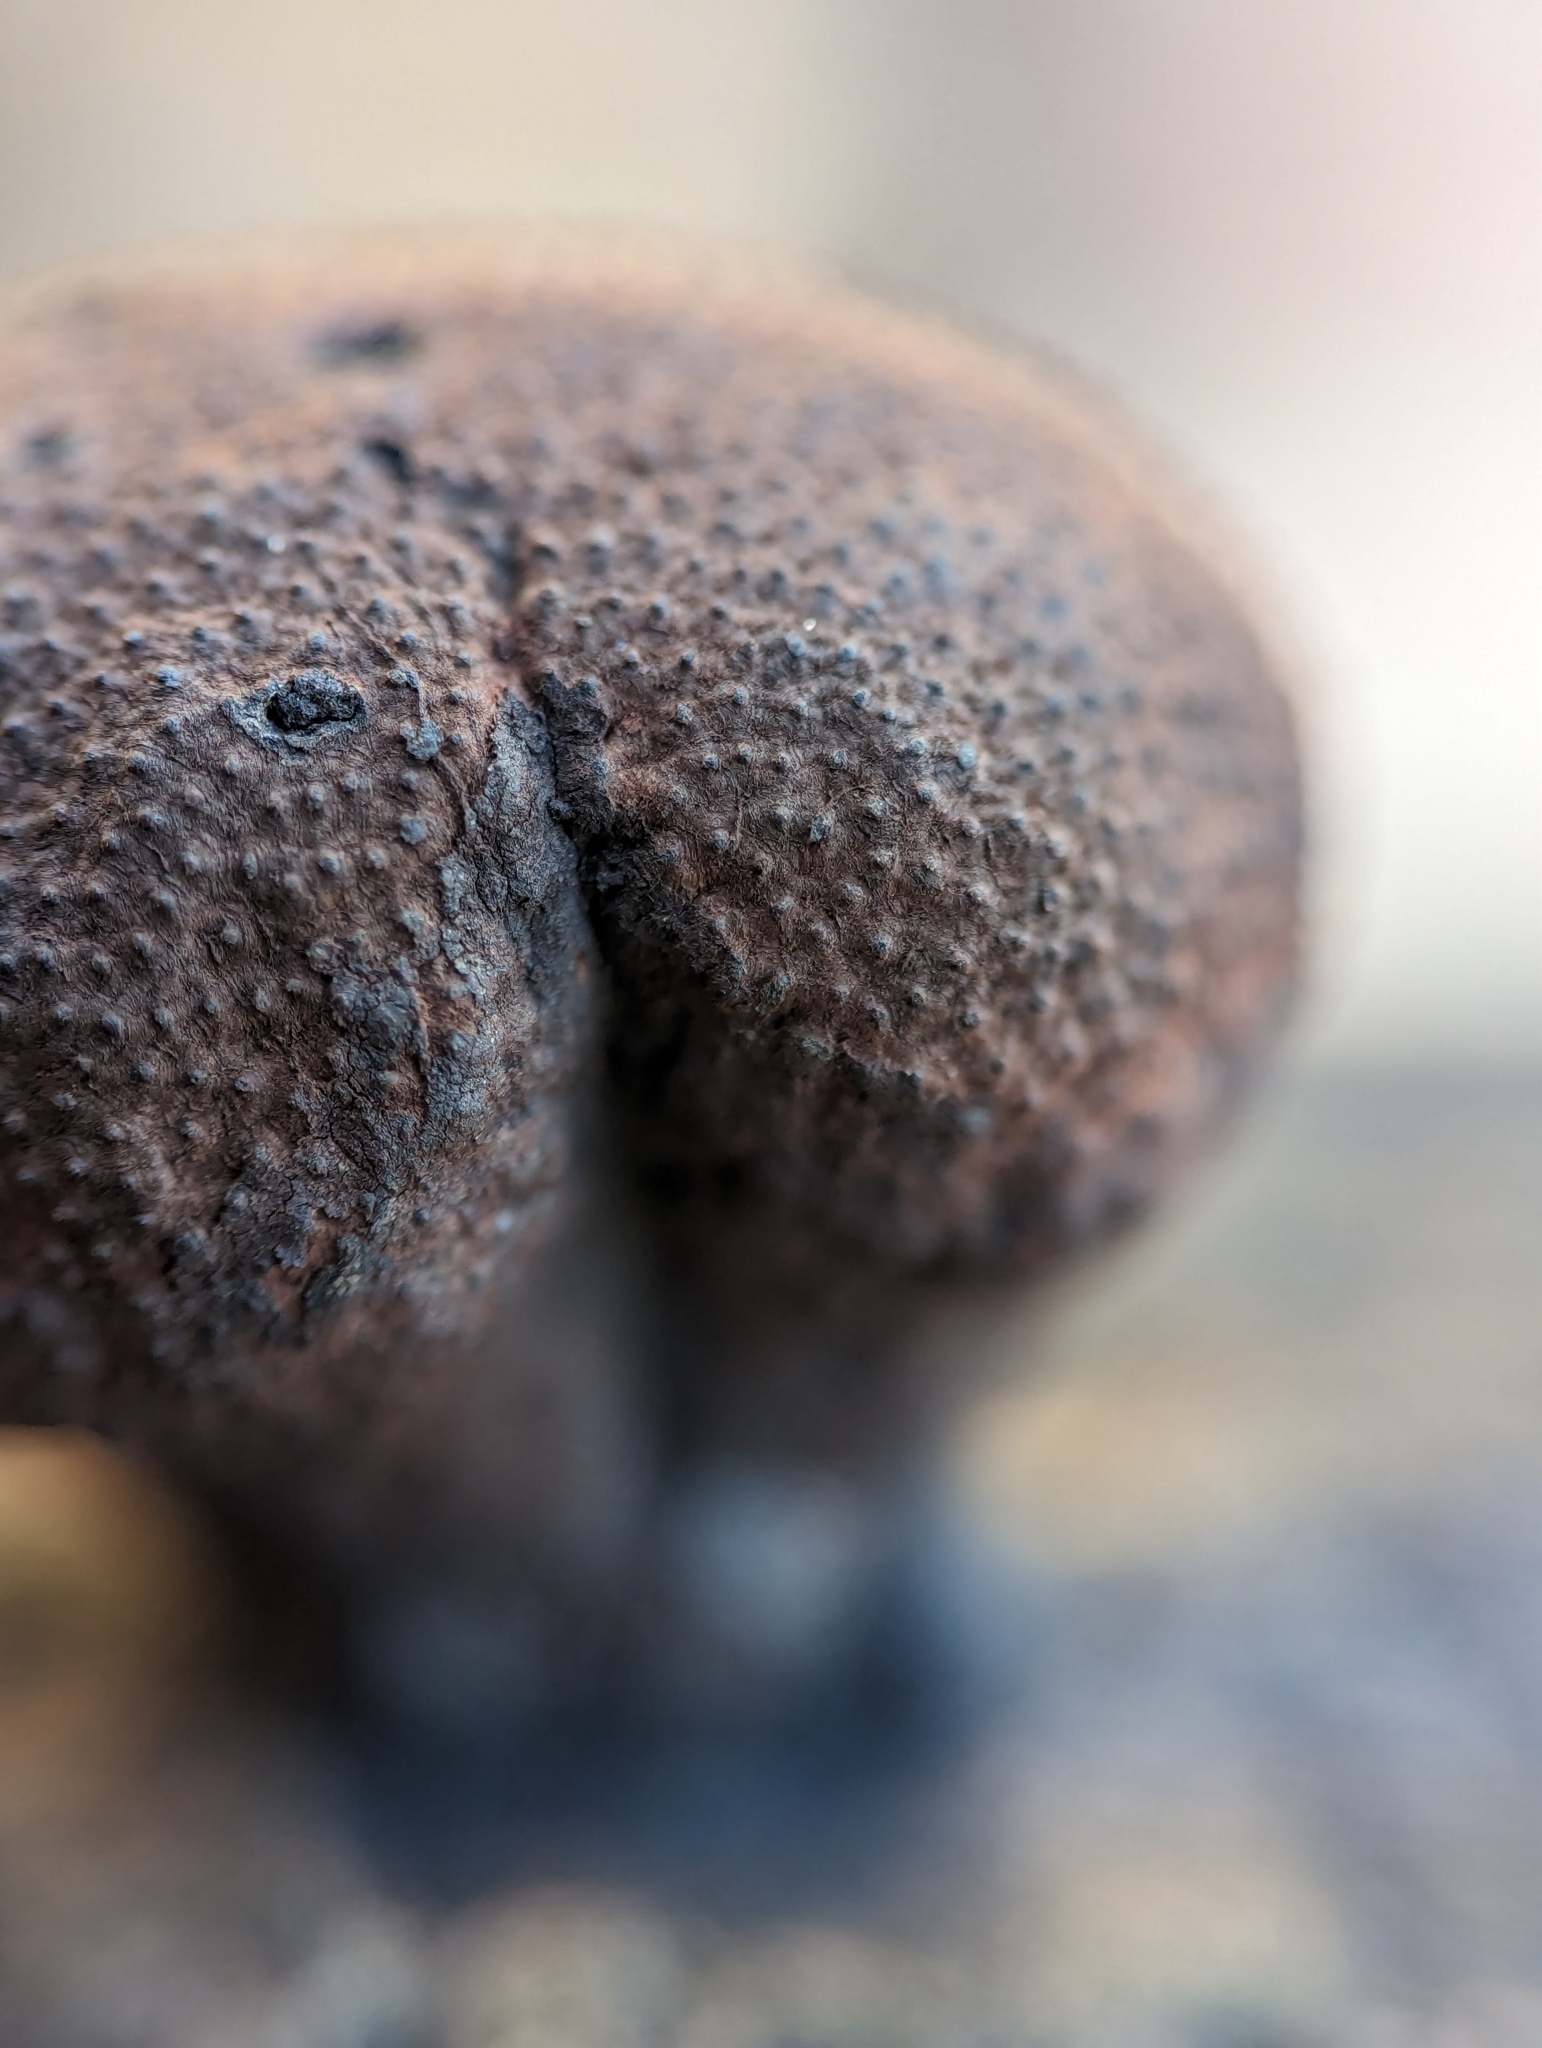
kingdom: Fungi
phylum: Ascomycota
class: Sordariomycetes
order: Xylariales
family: Hypoxylaceae
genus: Daldinia
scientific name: Daldinia childiae
